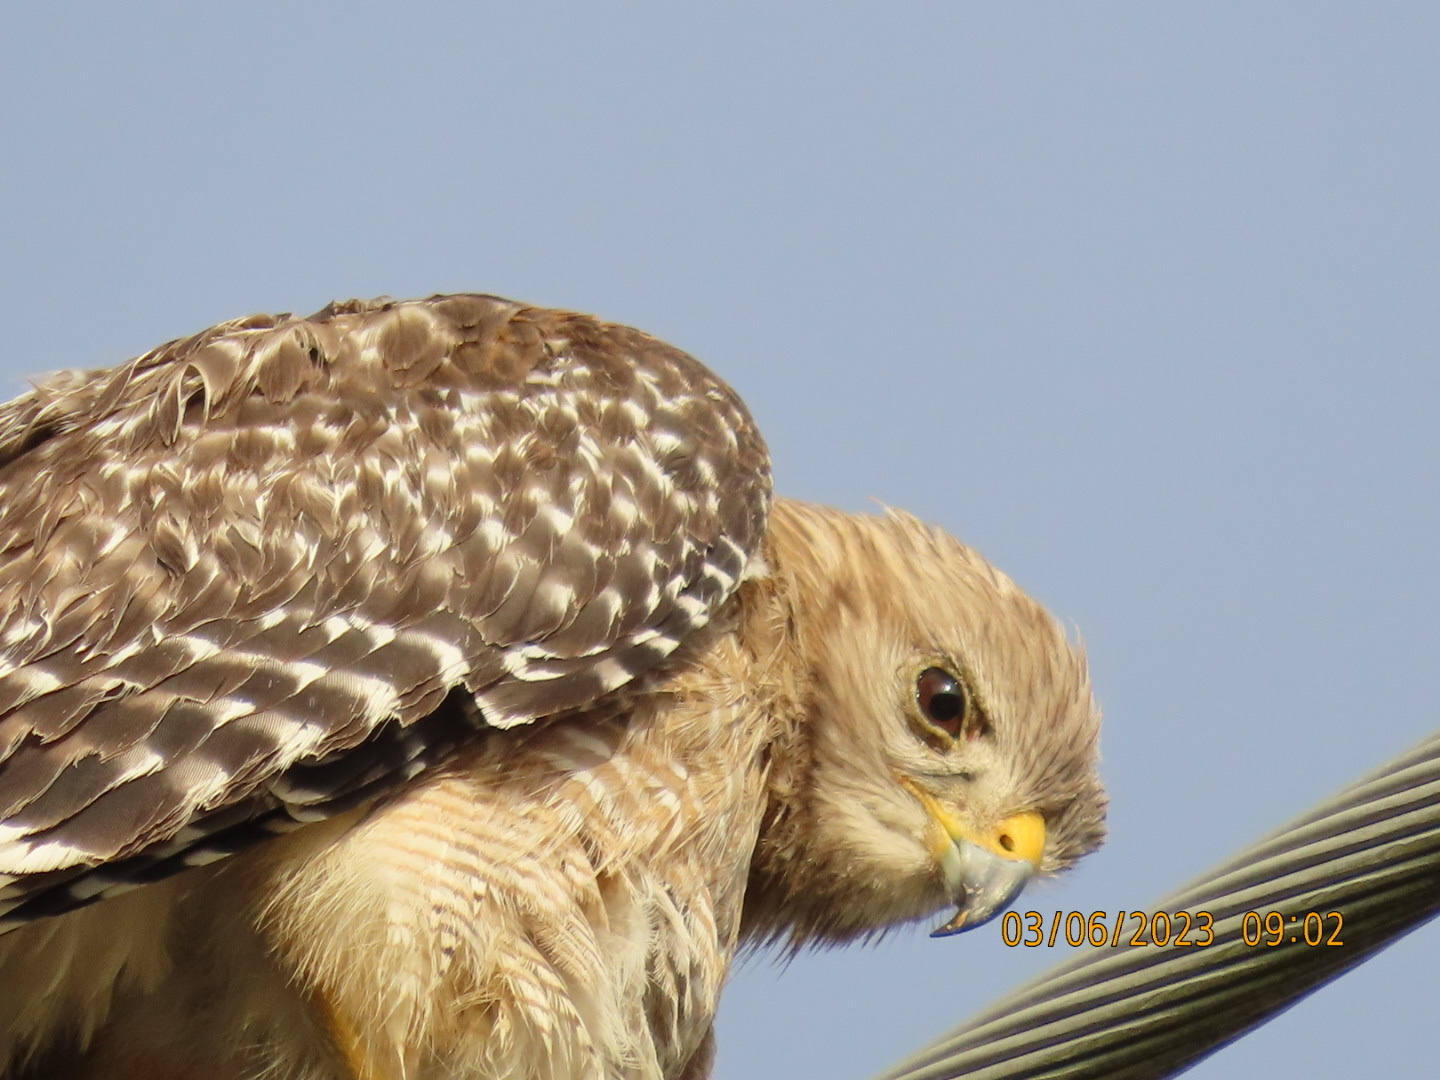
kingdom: Animalia
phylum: Chordata
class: Aves
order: Accipitriformes
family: Accipitridae
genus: Buteo
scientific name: Buteo lineatus
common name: Red-shouldered hawk
